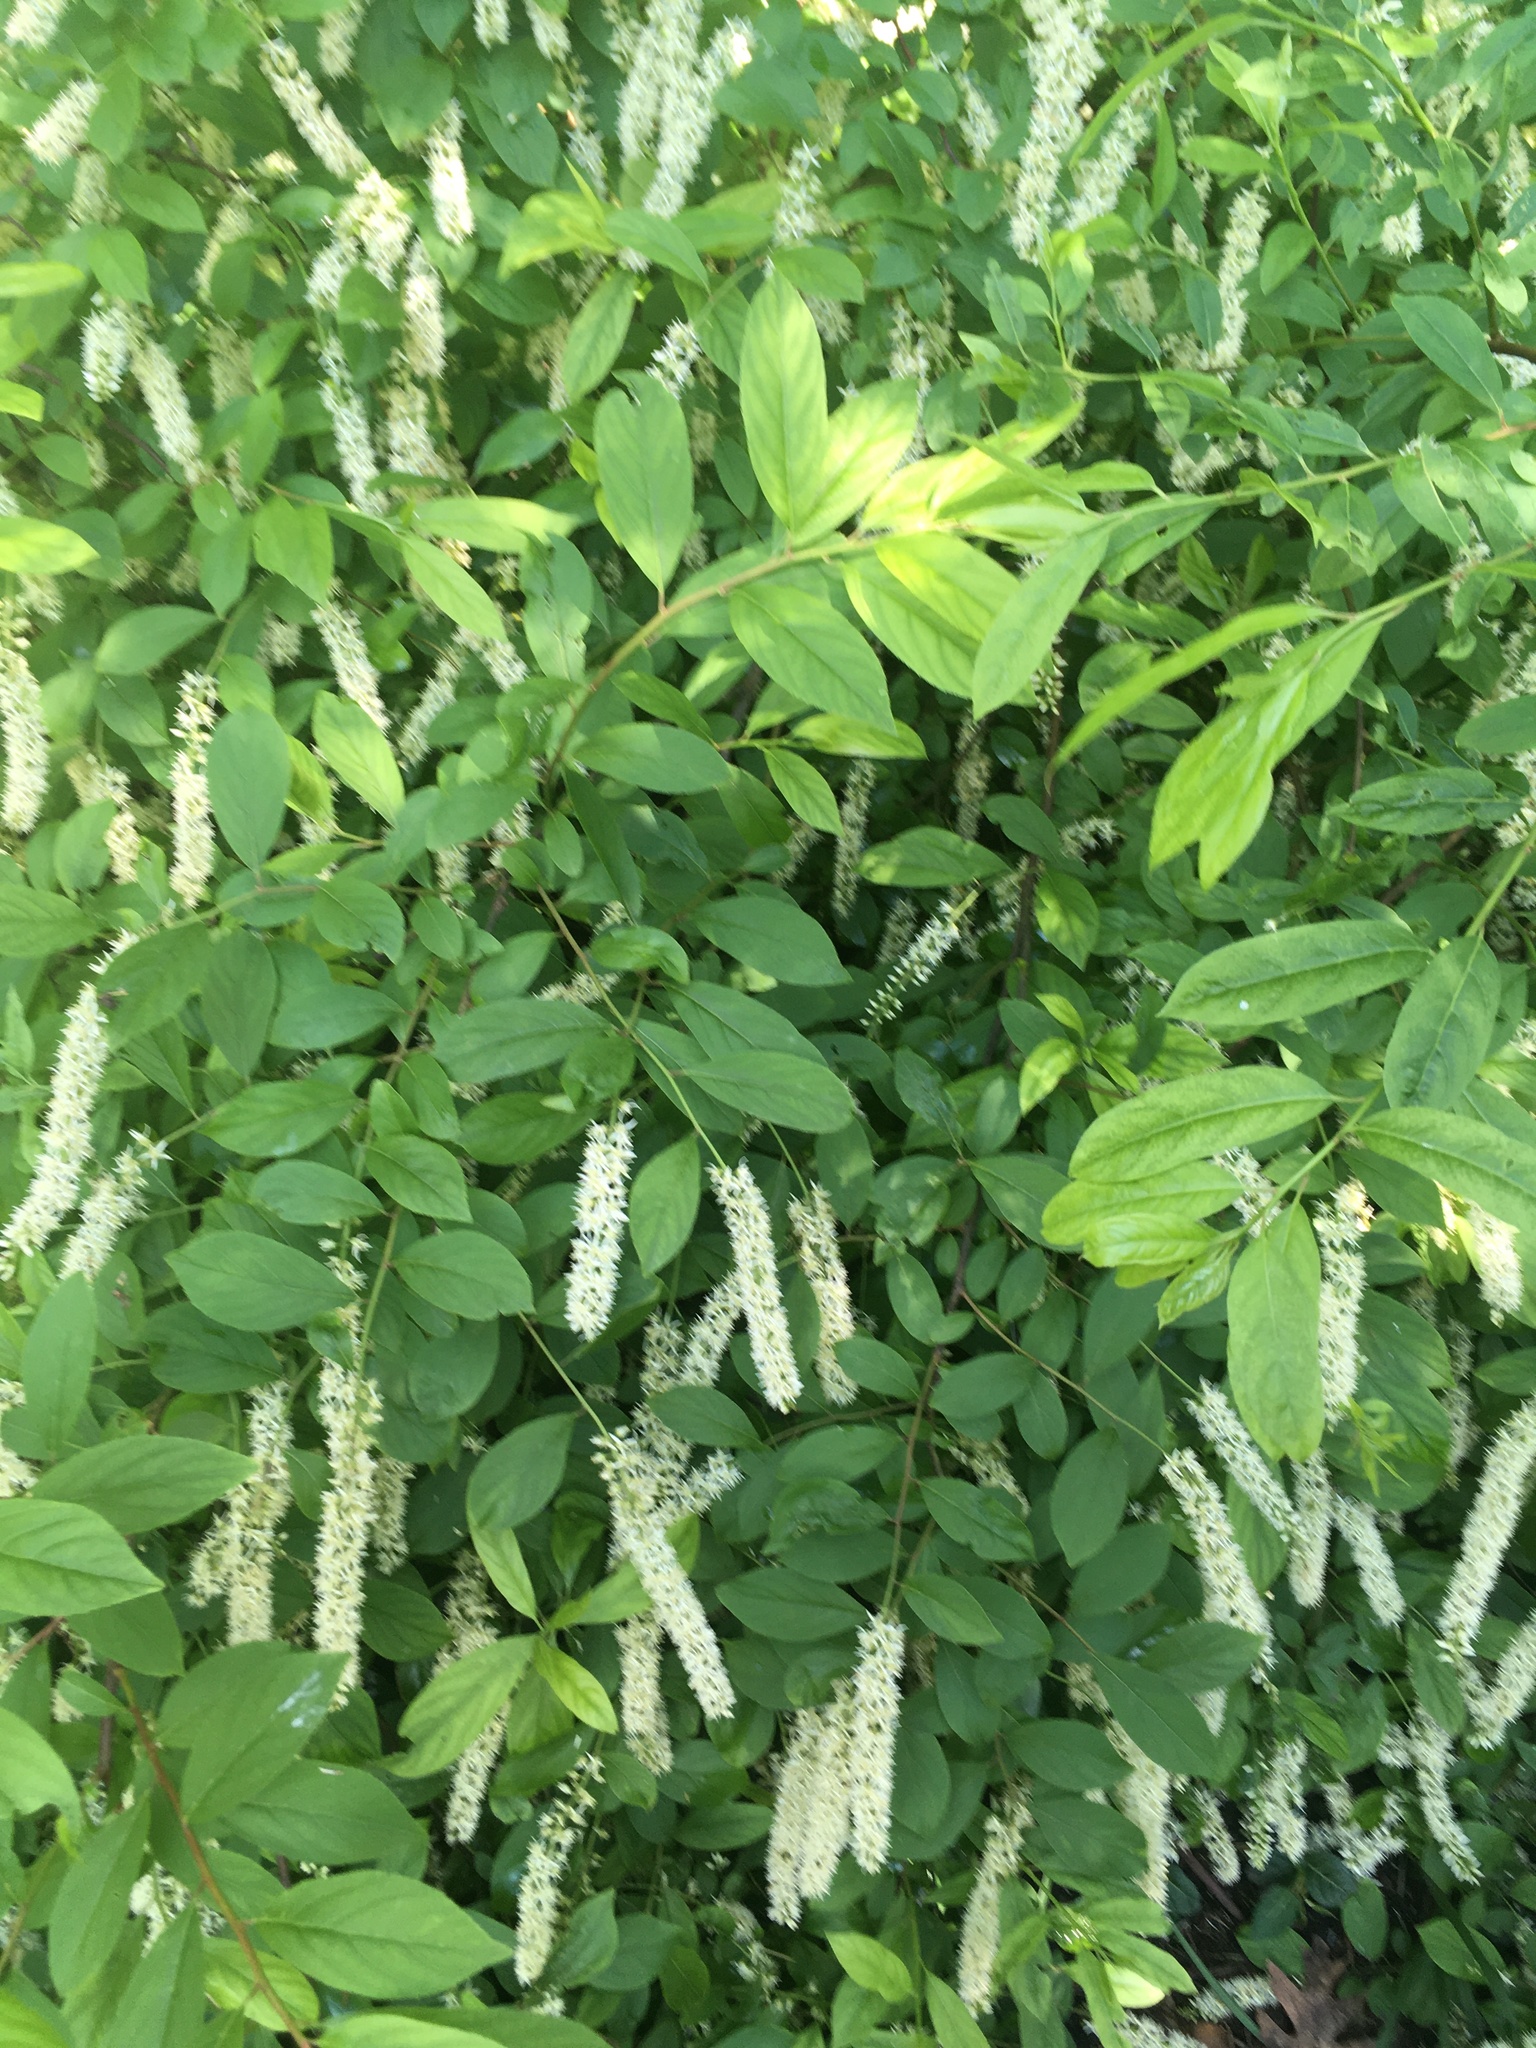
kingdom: Plantae
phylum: Tracheophyta
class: Magnoliopsida
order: Saxifragales
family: Iteaceae
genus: Itea
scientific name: Itea virginica
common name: Sweetspire
